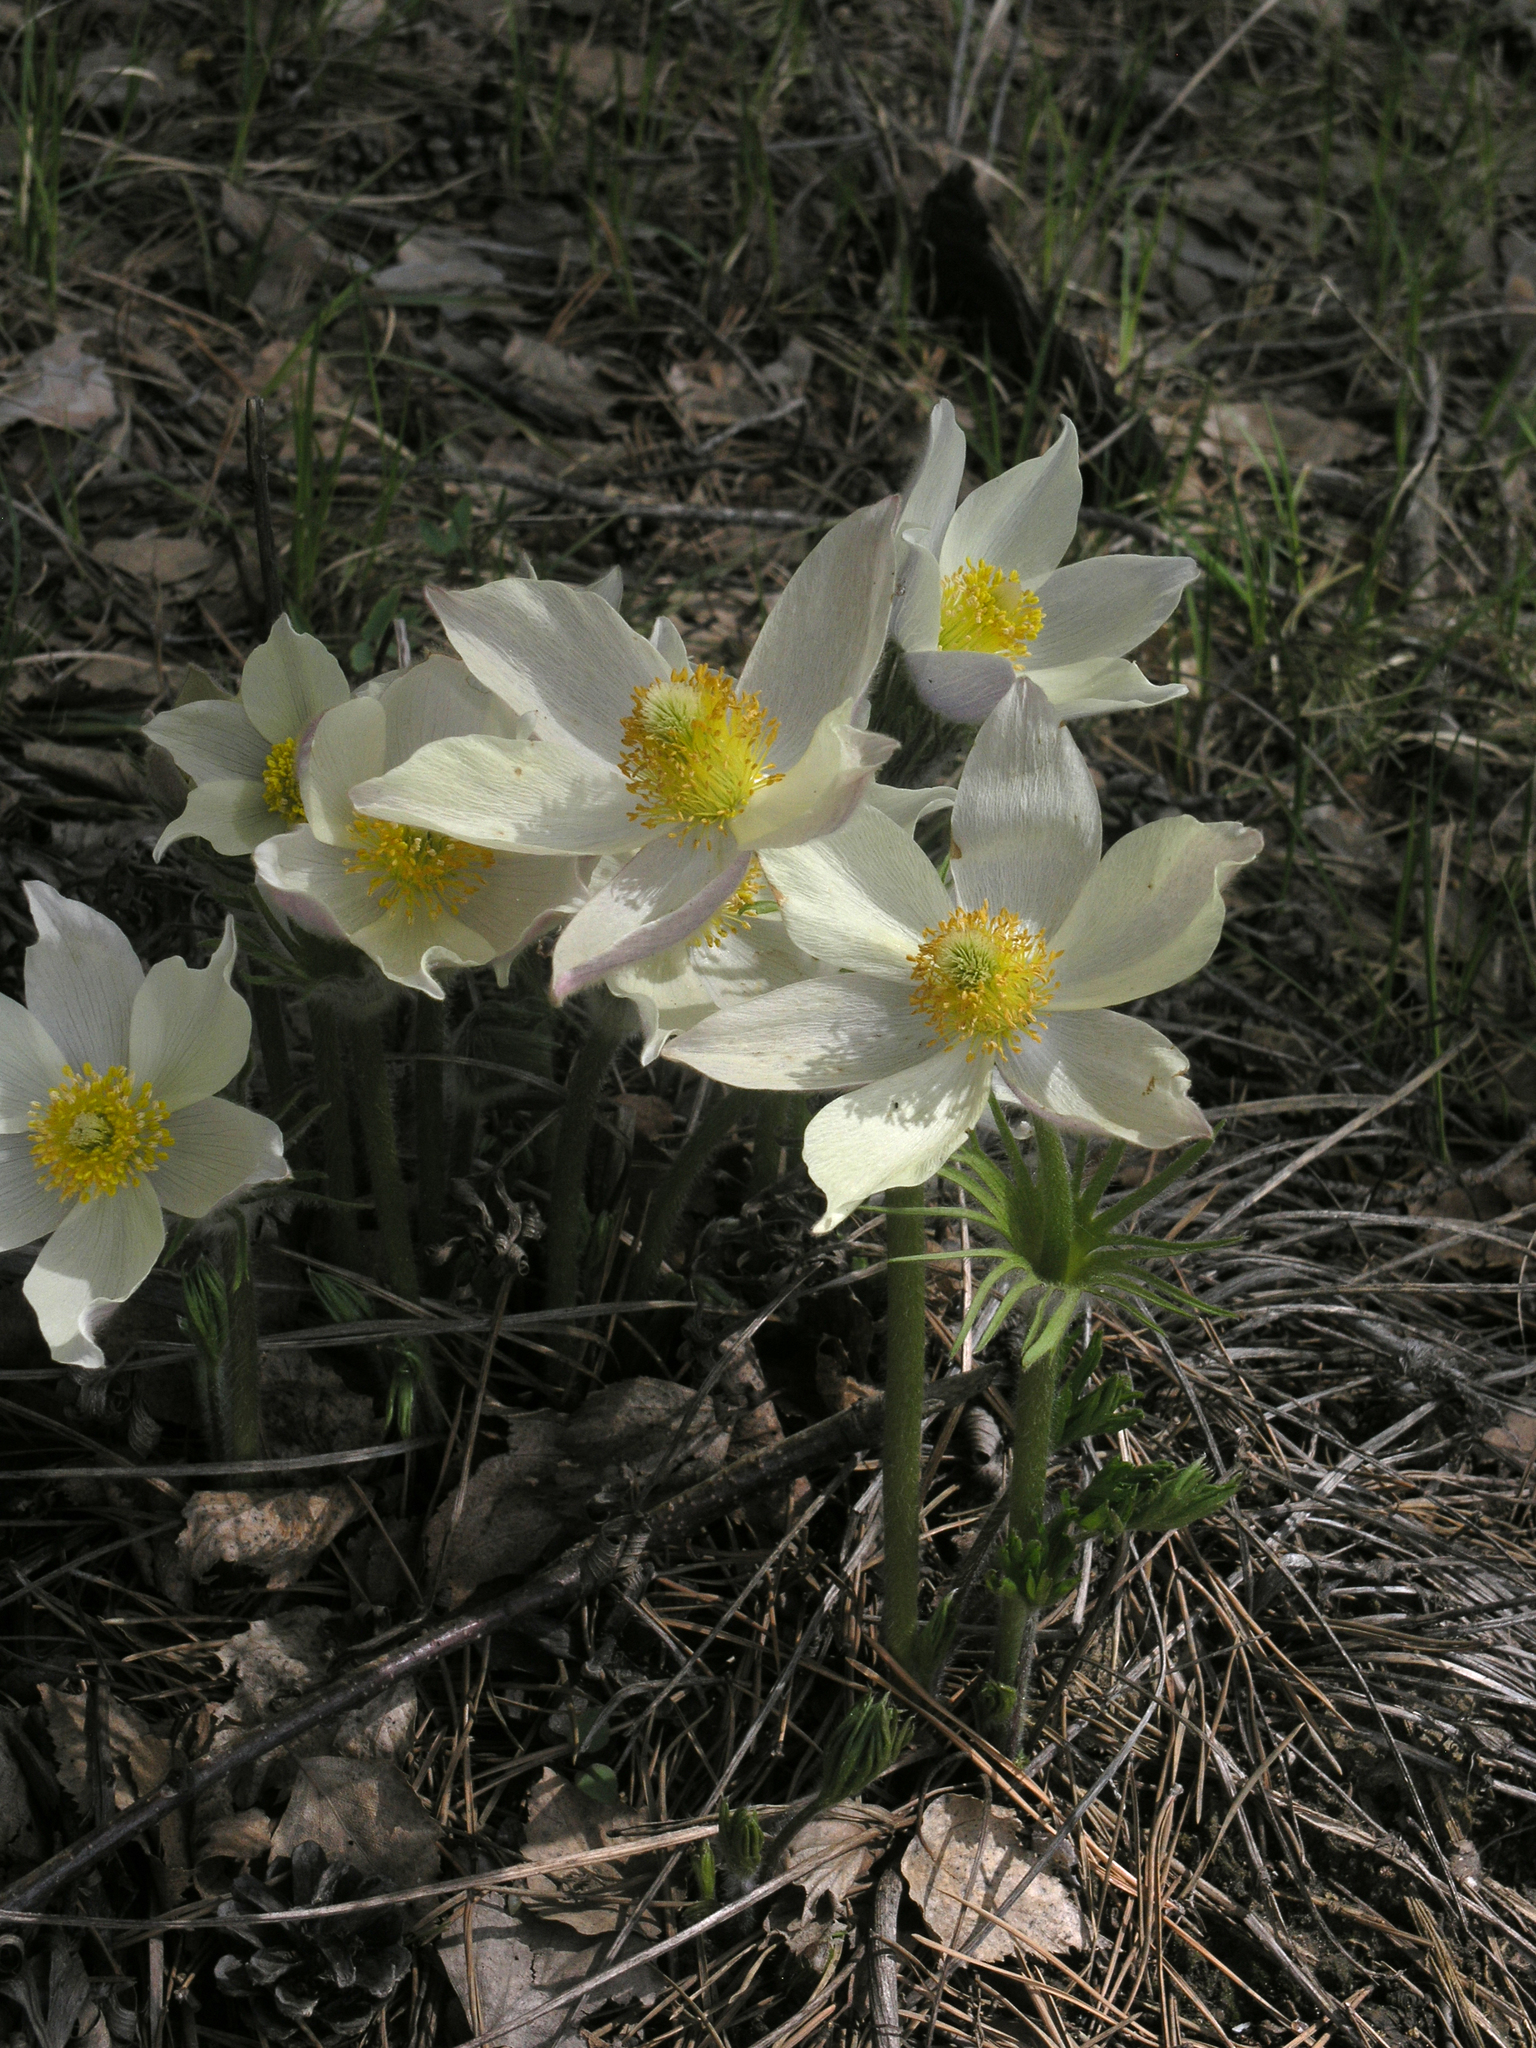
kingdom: Plantae
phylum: Tracheophyta
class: Magnoliopsida
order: Ranunculales
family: Ranunculaceae
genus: Pulsatilla
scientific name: Pulsatilla patens
